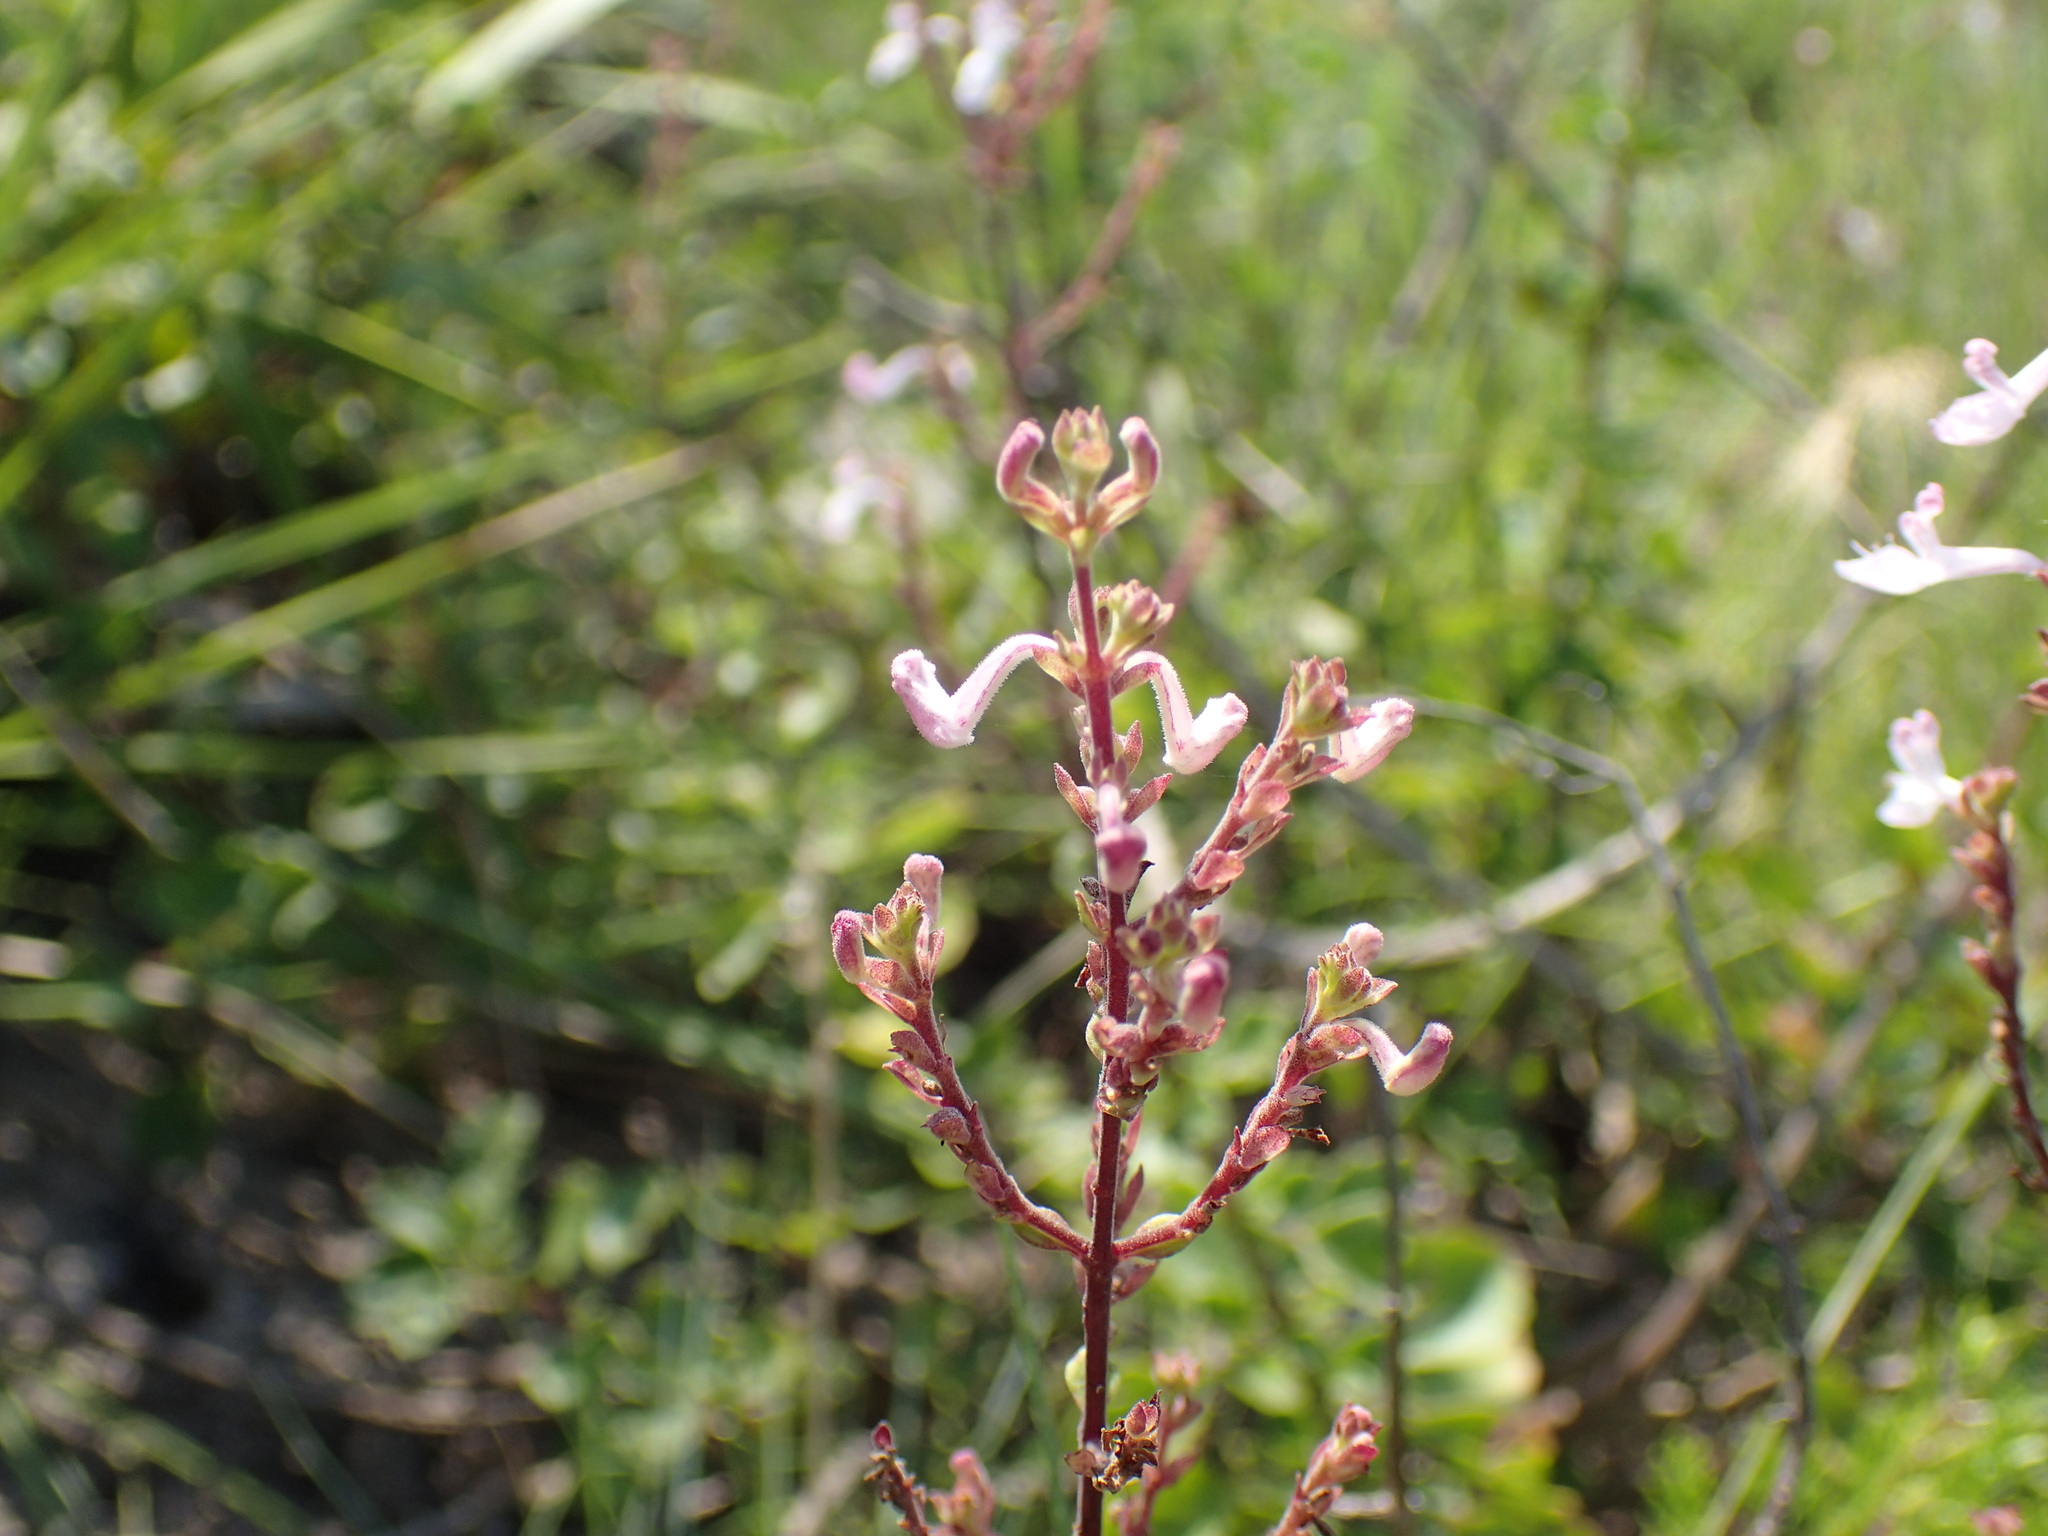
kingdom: Plantae
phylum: Tracheophyta
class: Magnoliopsida
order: Lamiales
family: Lamiaceae
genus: Aeollanthus
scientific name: Aeollanthus parvifolius
